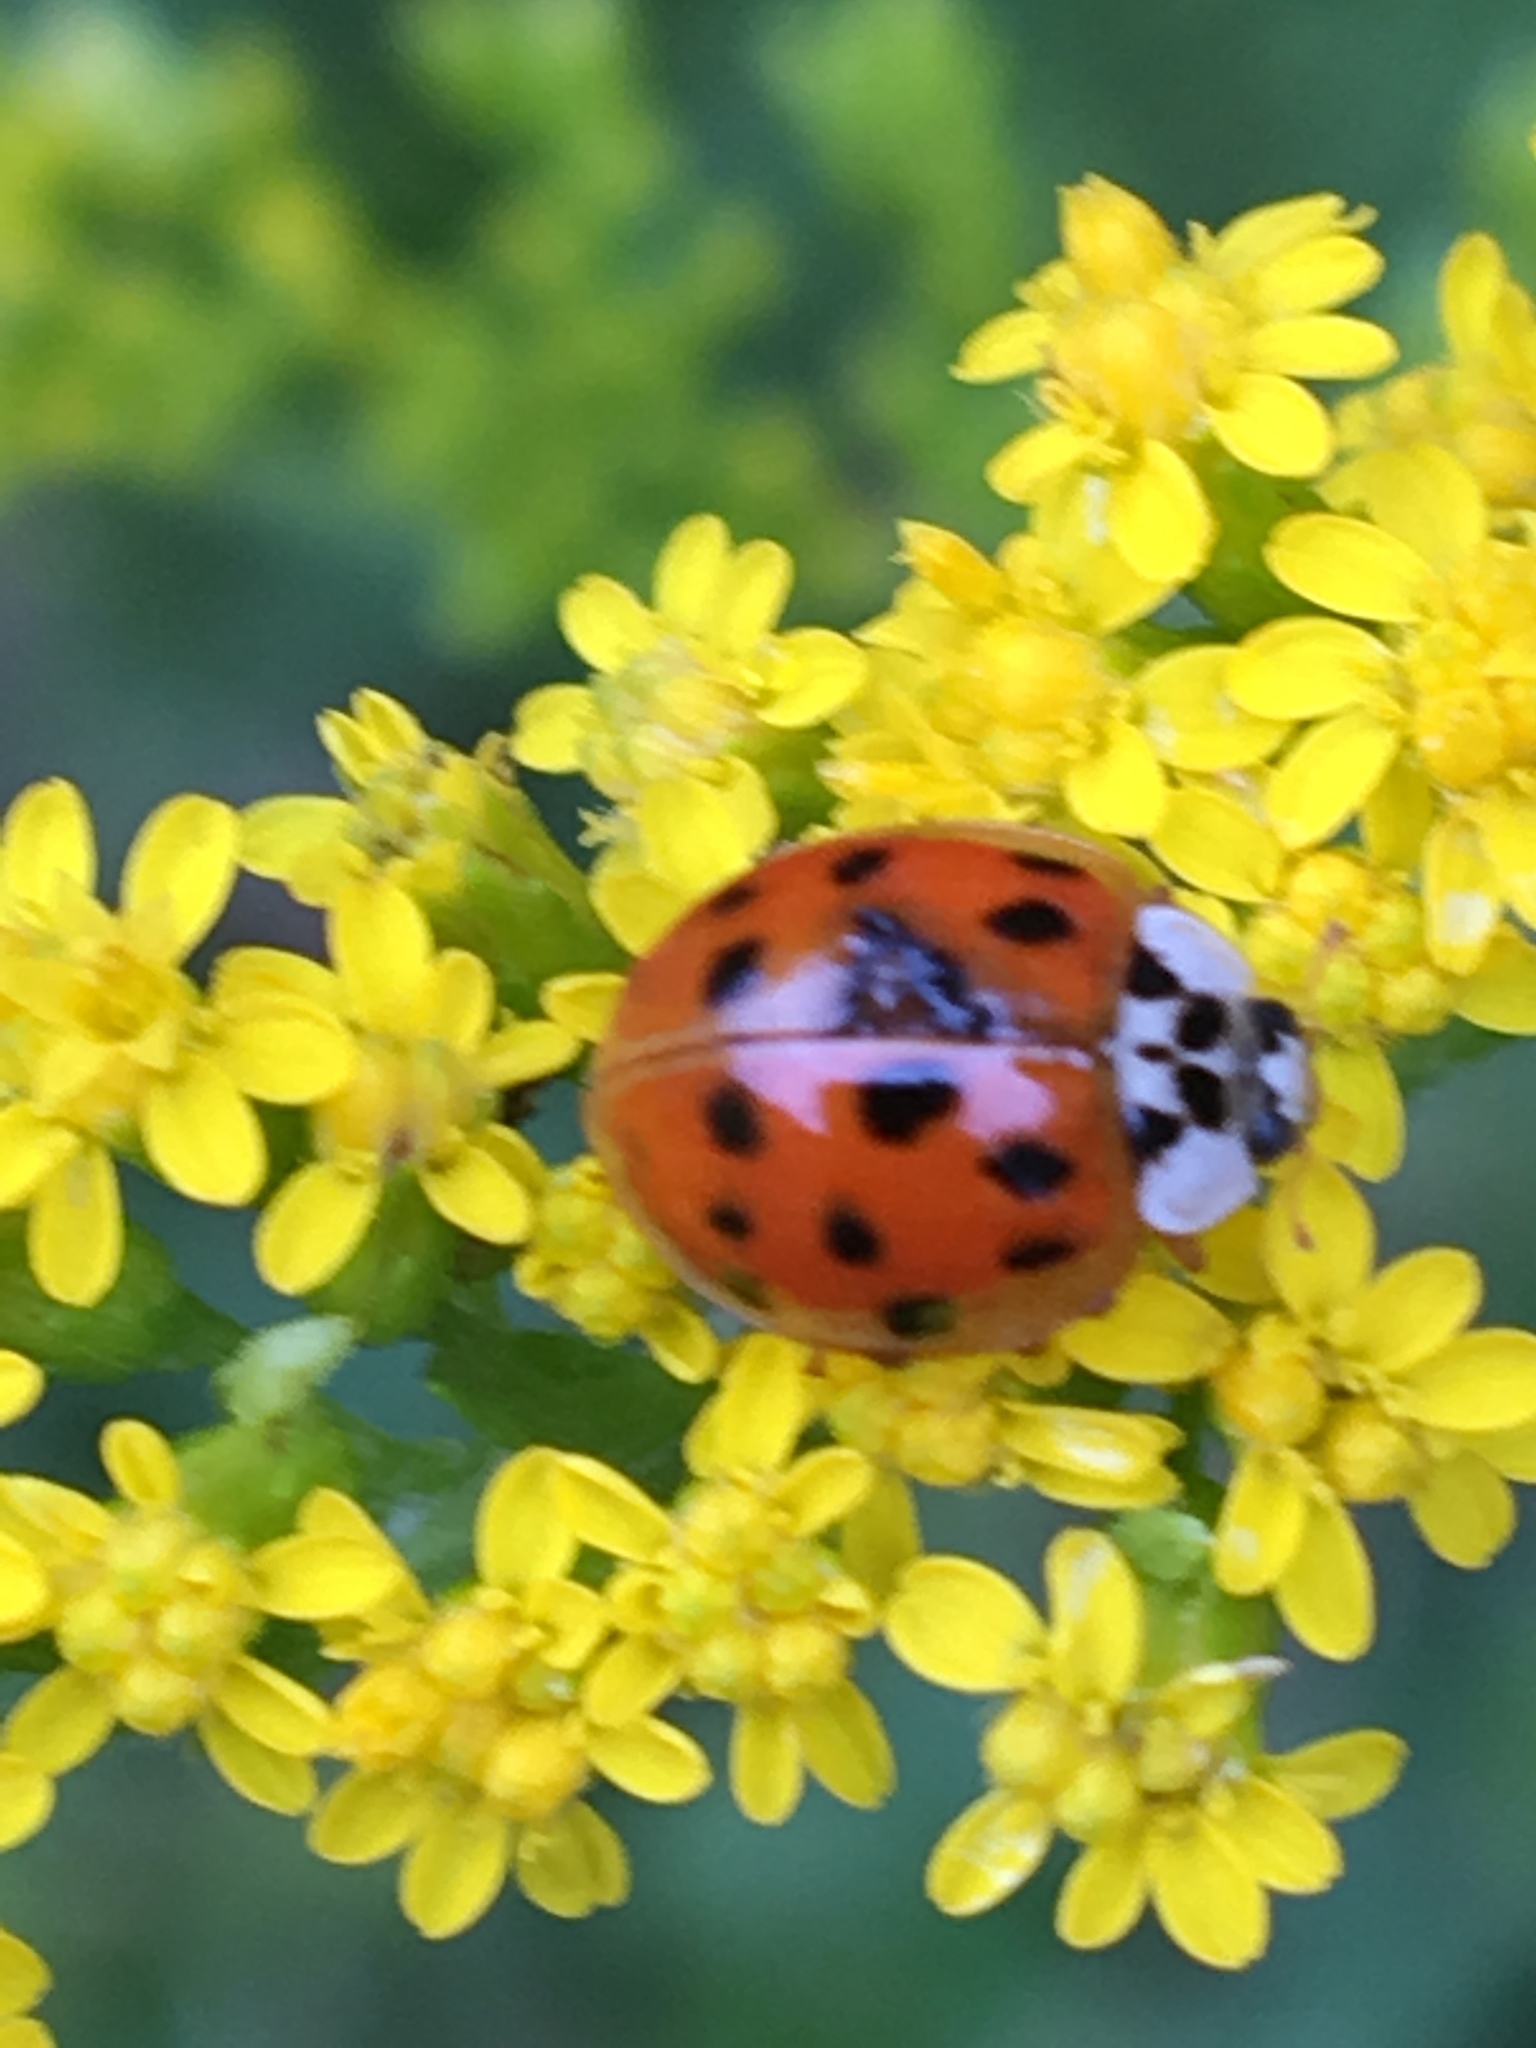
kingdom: Animalia
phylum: Arthropoda
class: Insecta
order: Coleoptera
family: Coccinellidae
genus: Harmonia
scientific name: Harmonia axyridis
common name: Harlequin ladybird
